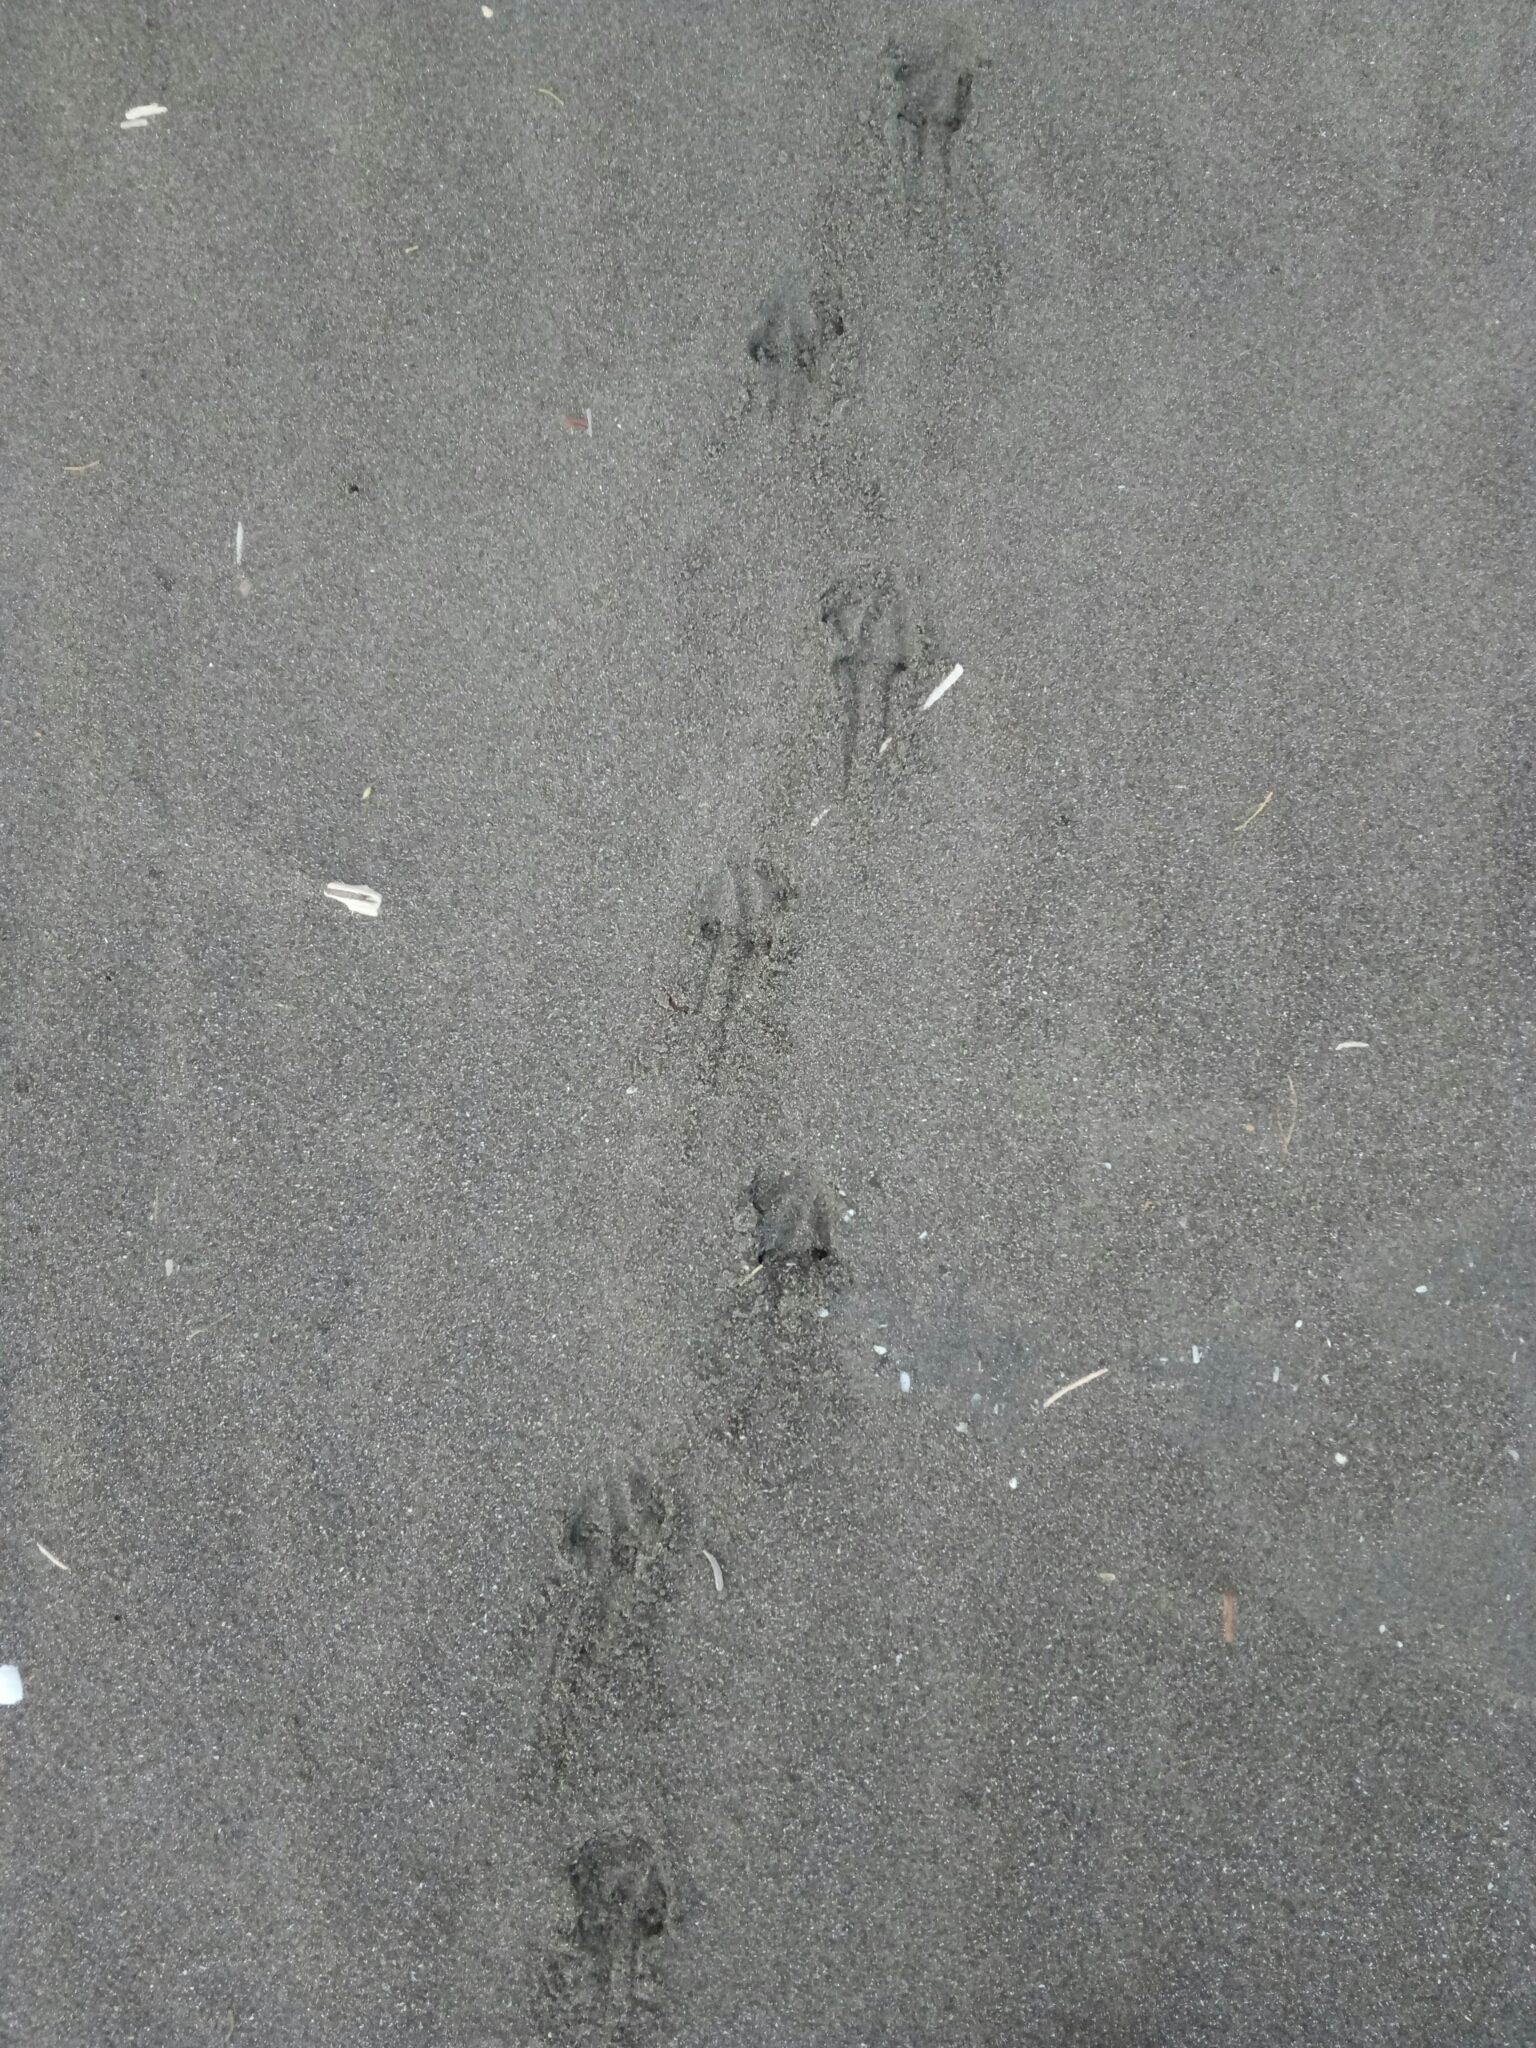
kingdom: Animalia
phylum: Chordata
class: Aves
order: Sphenisciformes
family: Spheniscidae
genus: Eudyptula
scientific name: Eudyptula minor
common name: Little penguin
